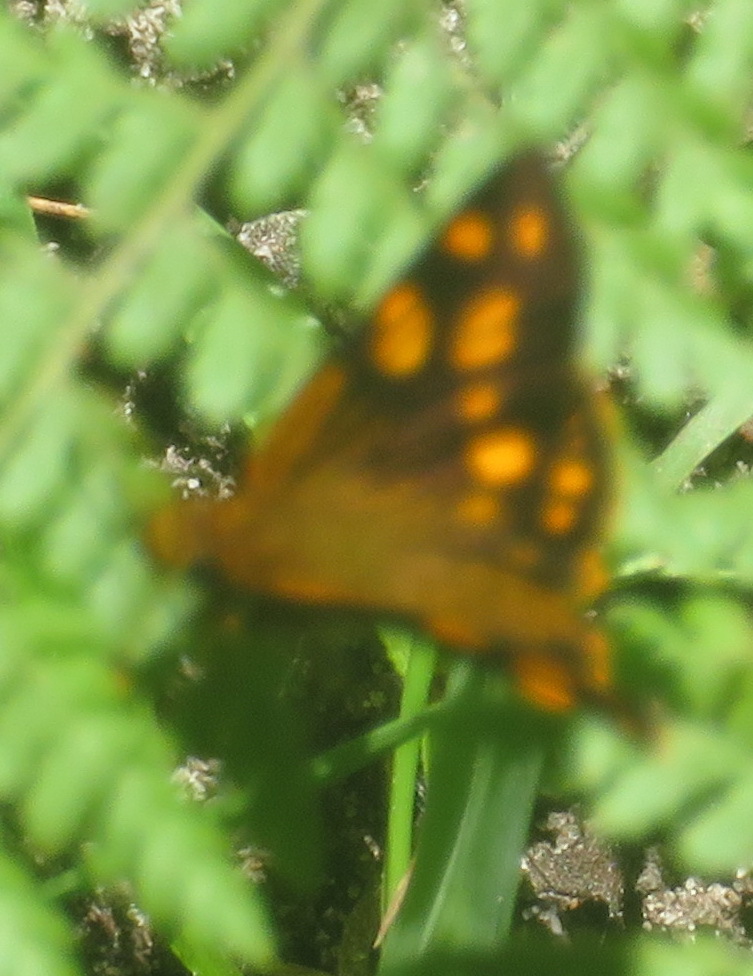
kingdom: Animalia
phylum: Arthropoda
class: Insecta
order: Lepidoptera
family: Hesperiidae
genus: Metisella
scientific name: Metisella metis
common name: Western gold-spotted sylph
